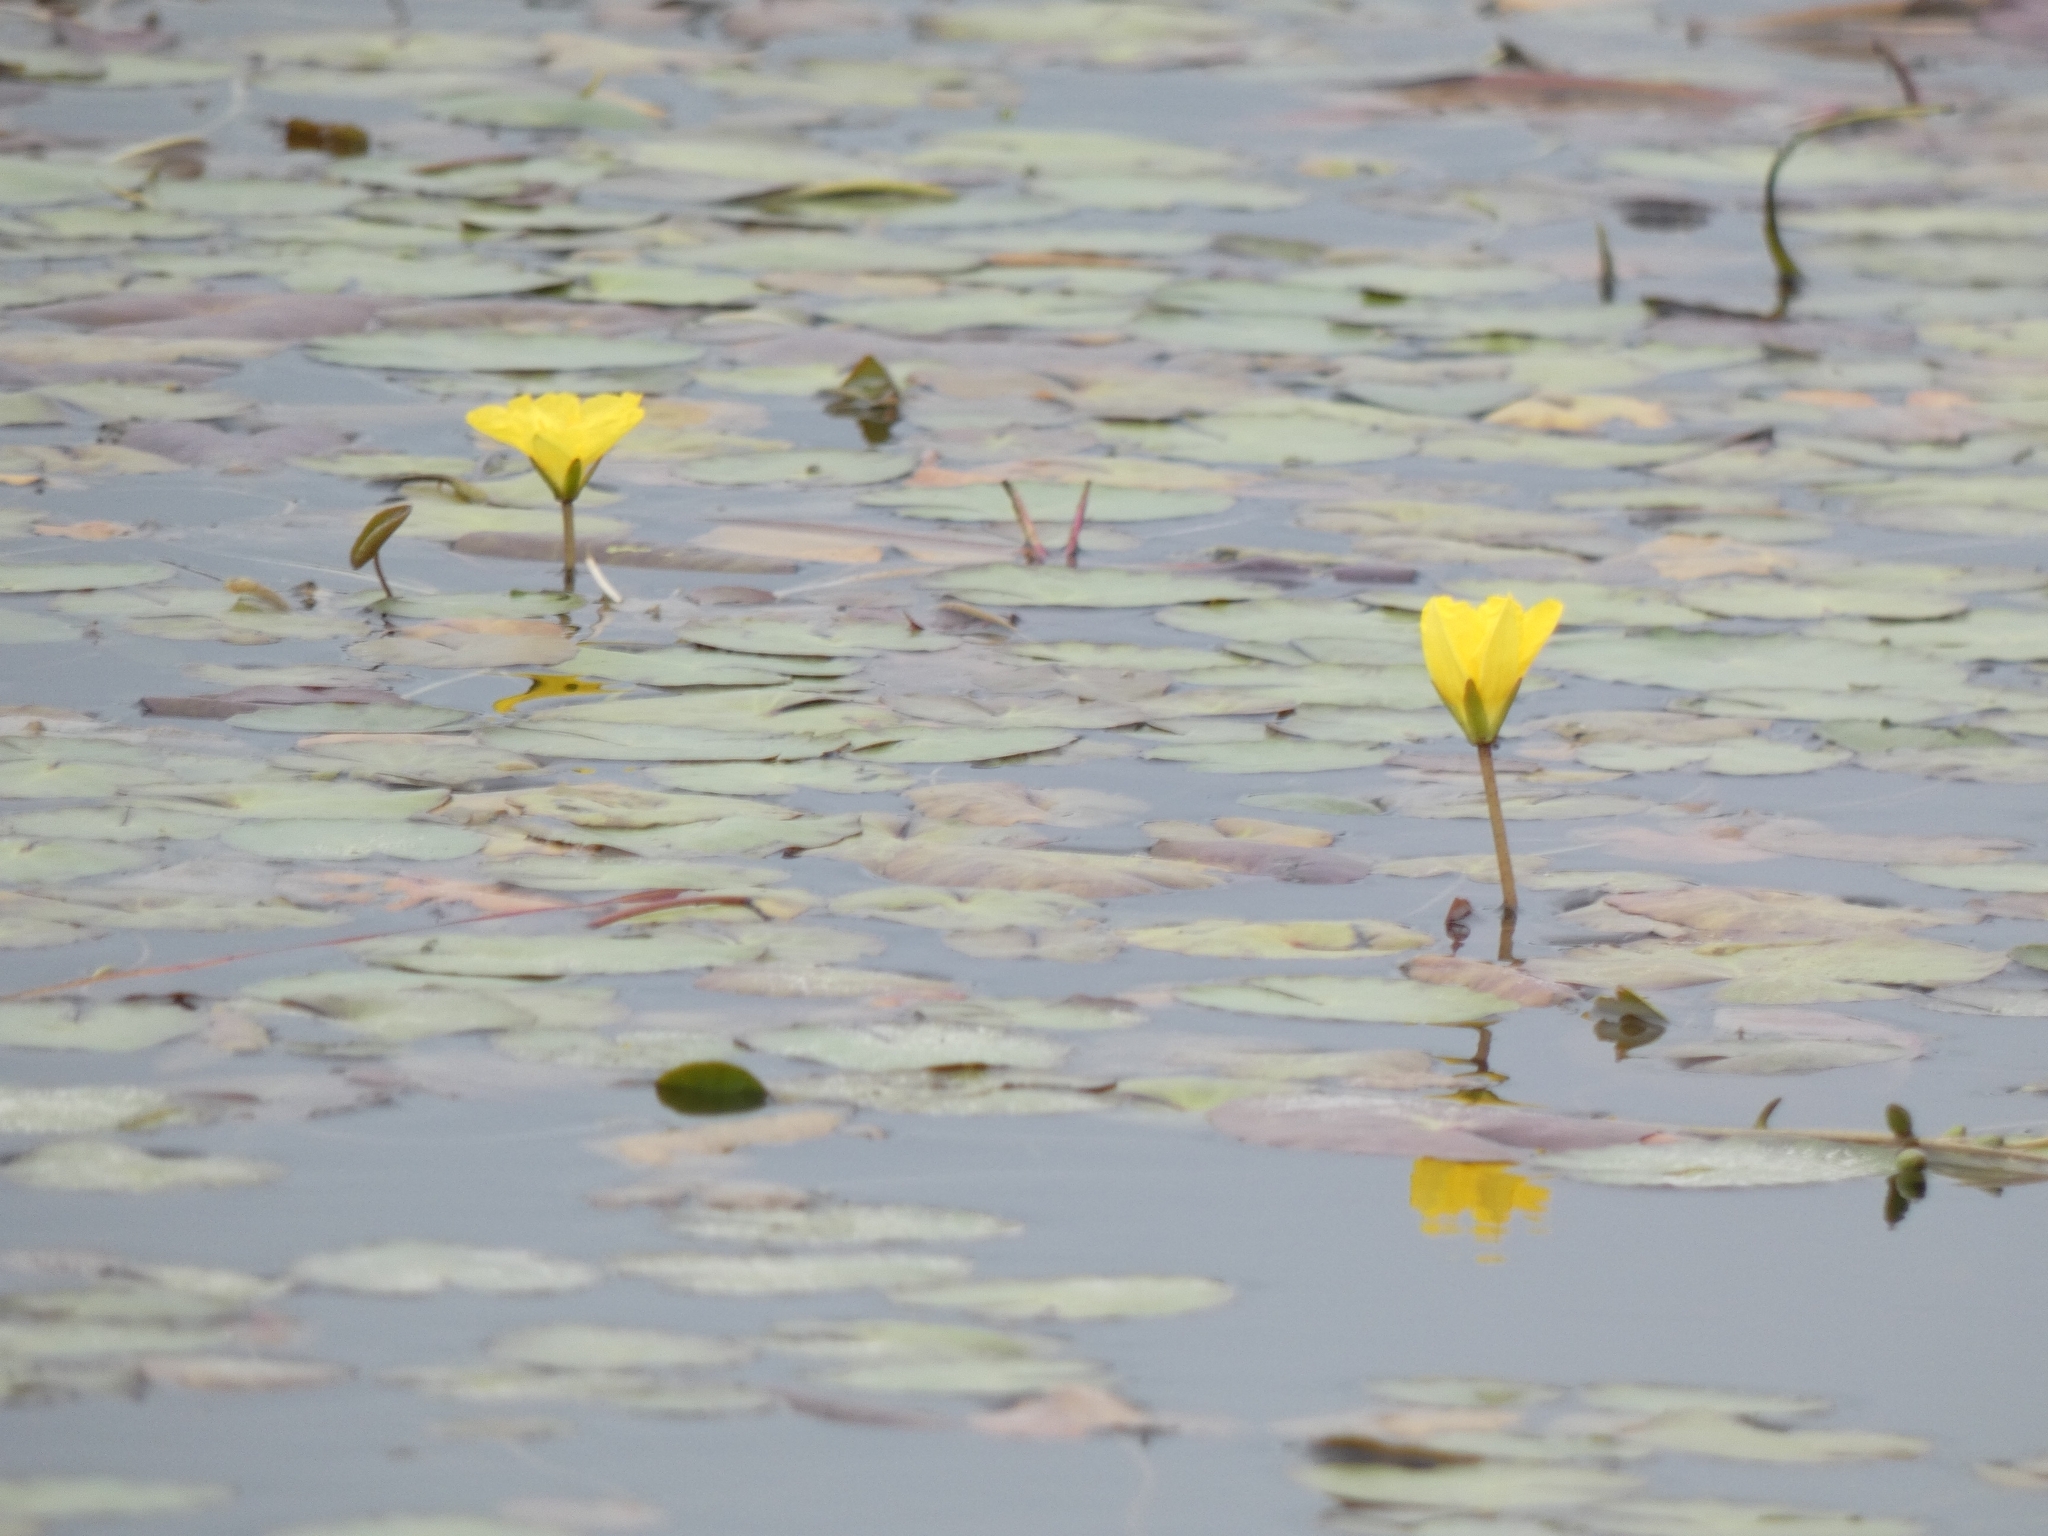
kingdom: Plantae
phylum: Tracheophyta
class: Magnoliopsida
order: Asterales
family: Menyanthaceae
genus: Nymphoides
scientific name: Nymphoides peltata
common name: Fringed water-lily
